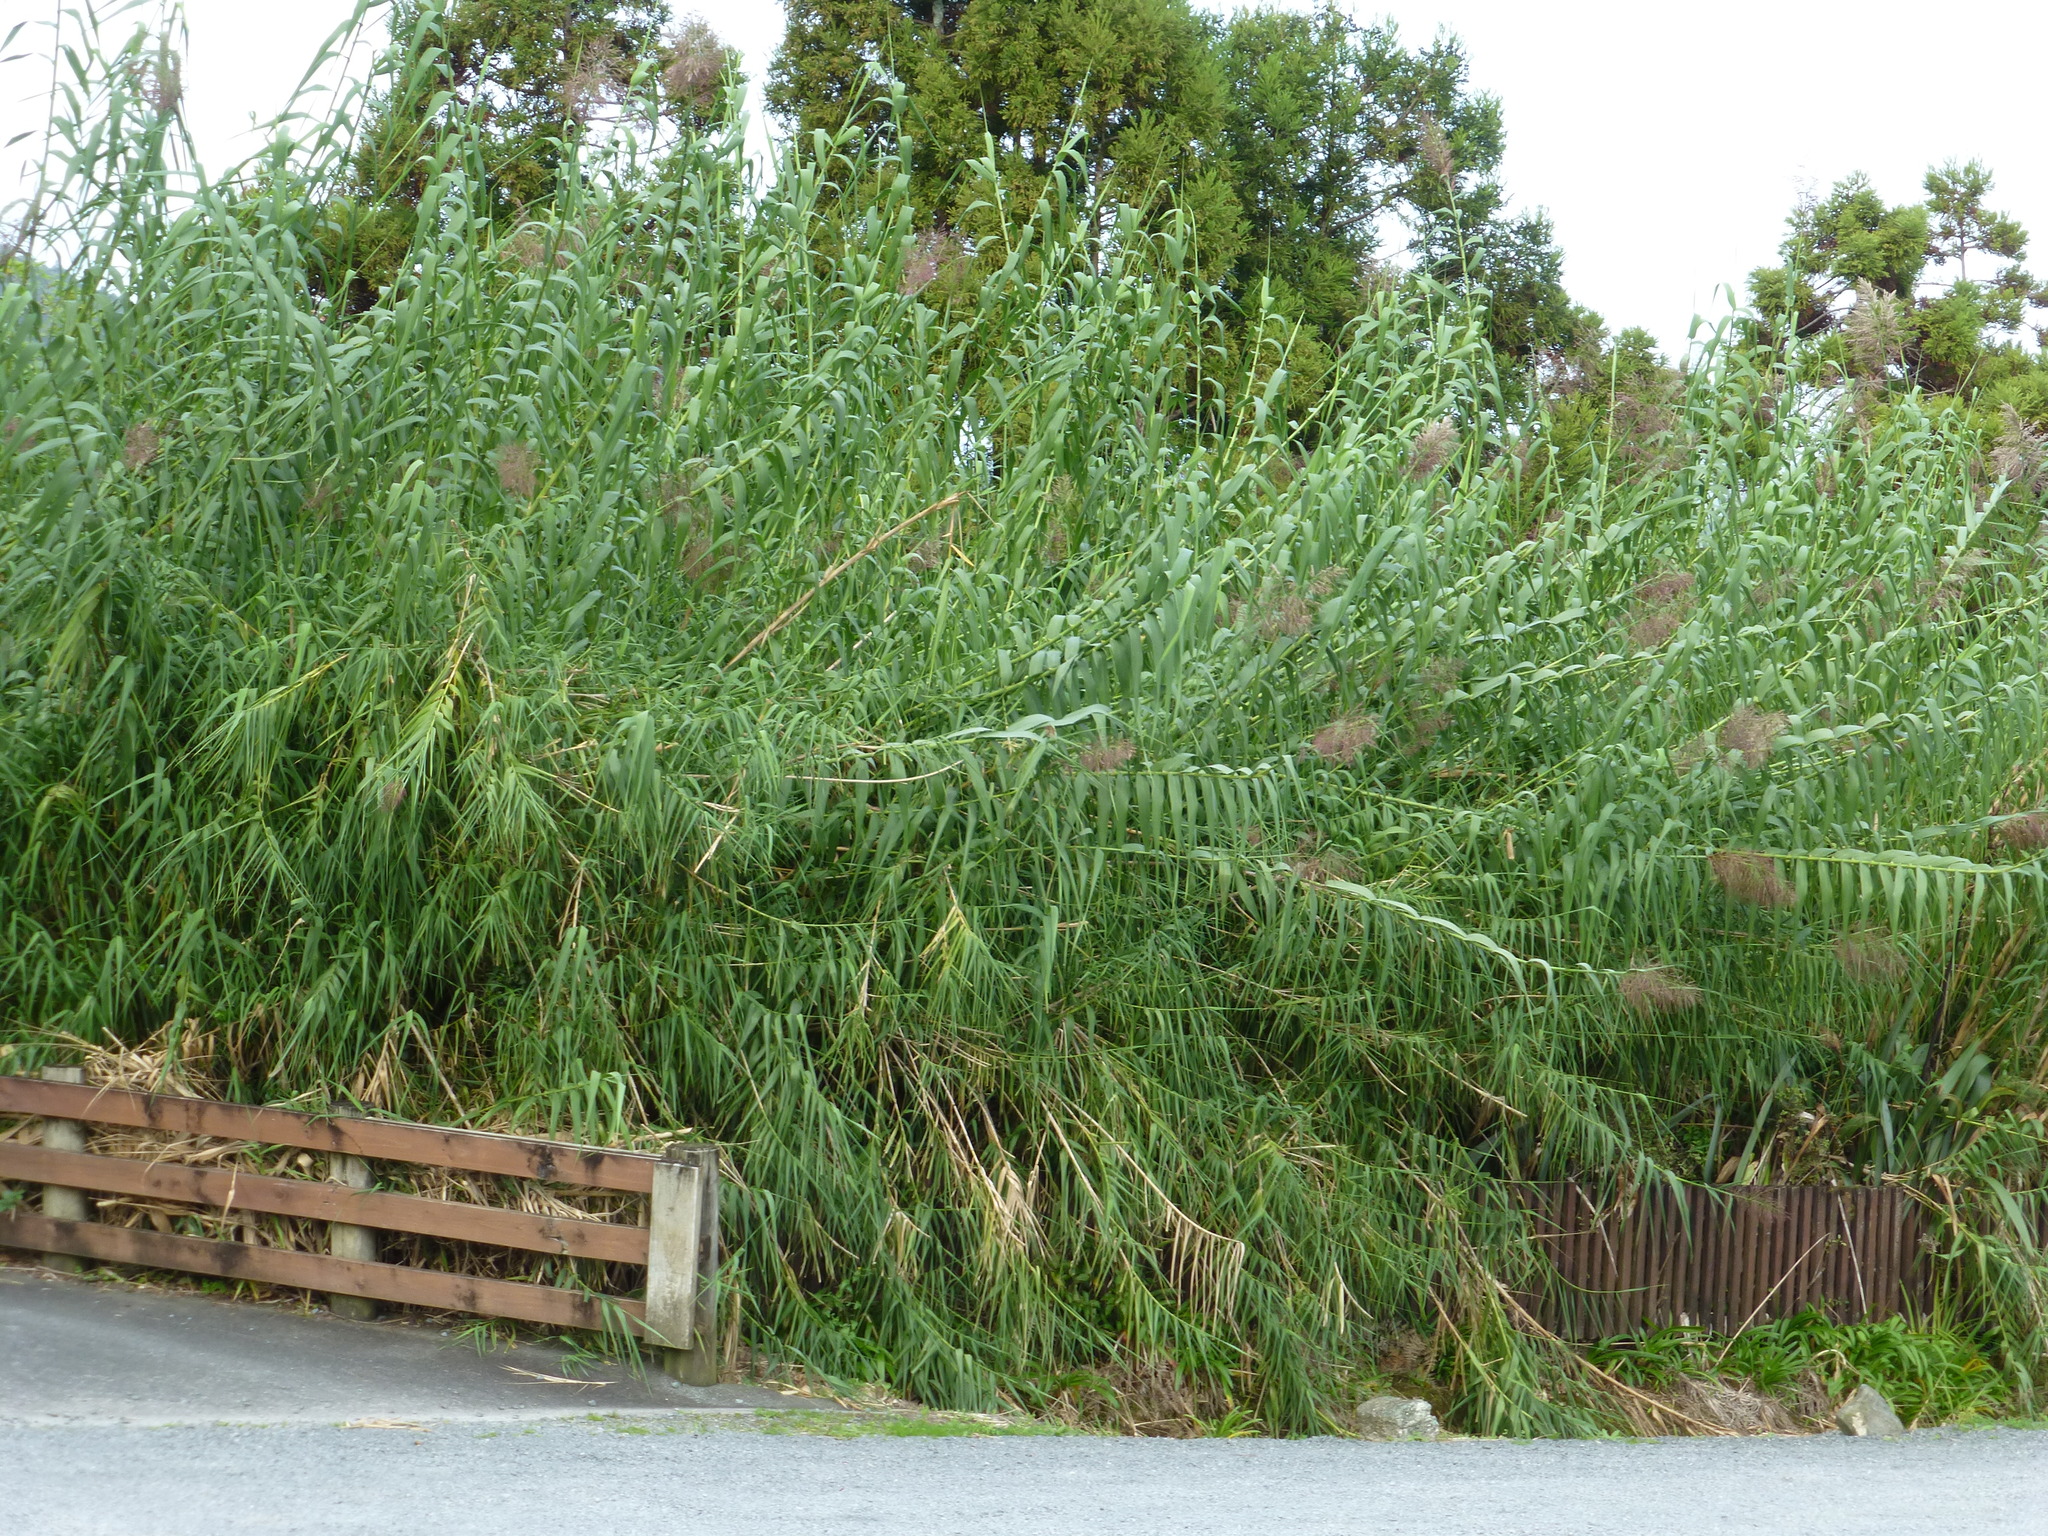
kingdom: Plantae
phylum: Tracheophyta
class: Liliopsida
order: Poales
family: Poaceae
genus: Arundo
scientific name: Arundo donax
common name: Giant reed
